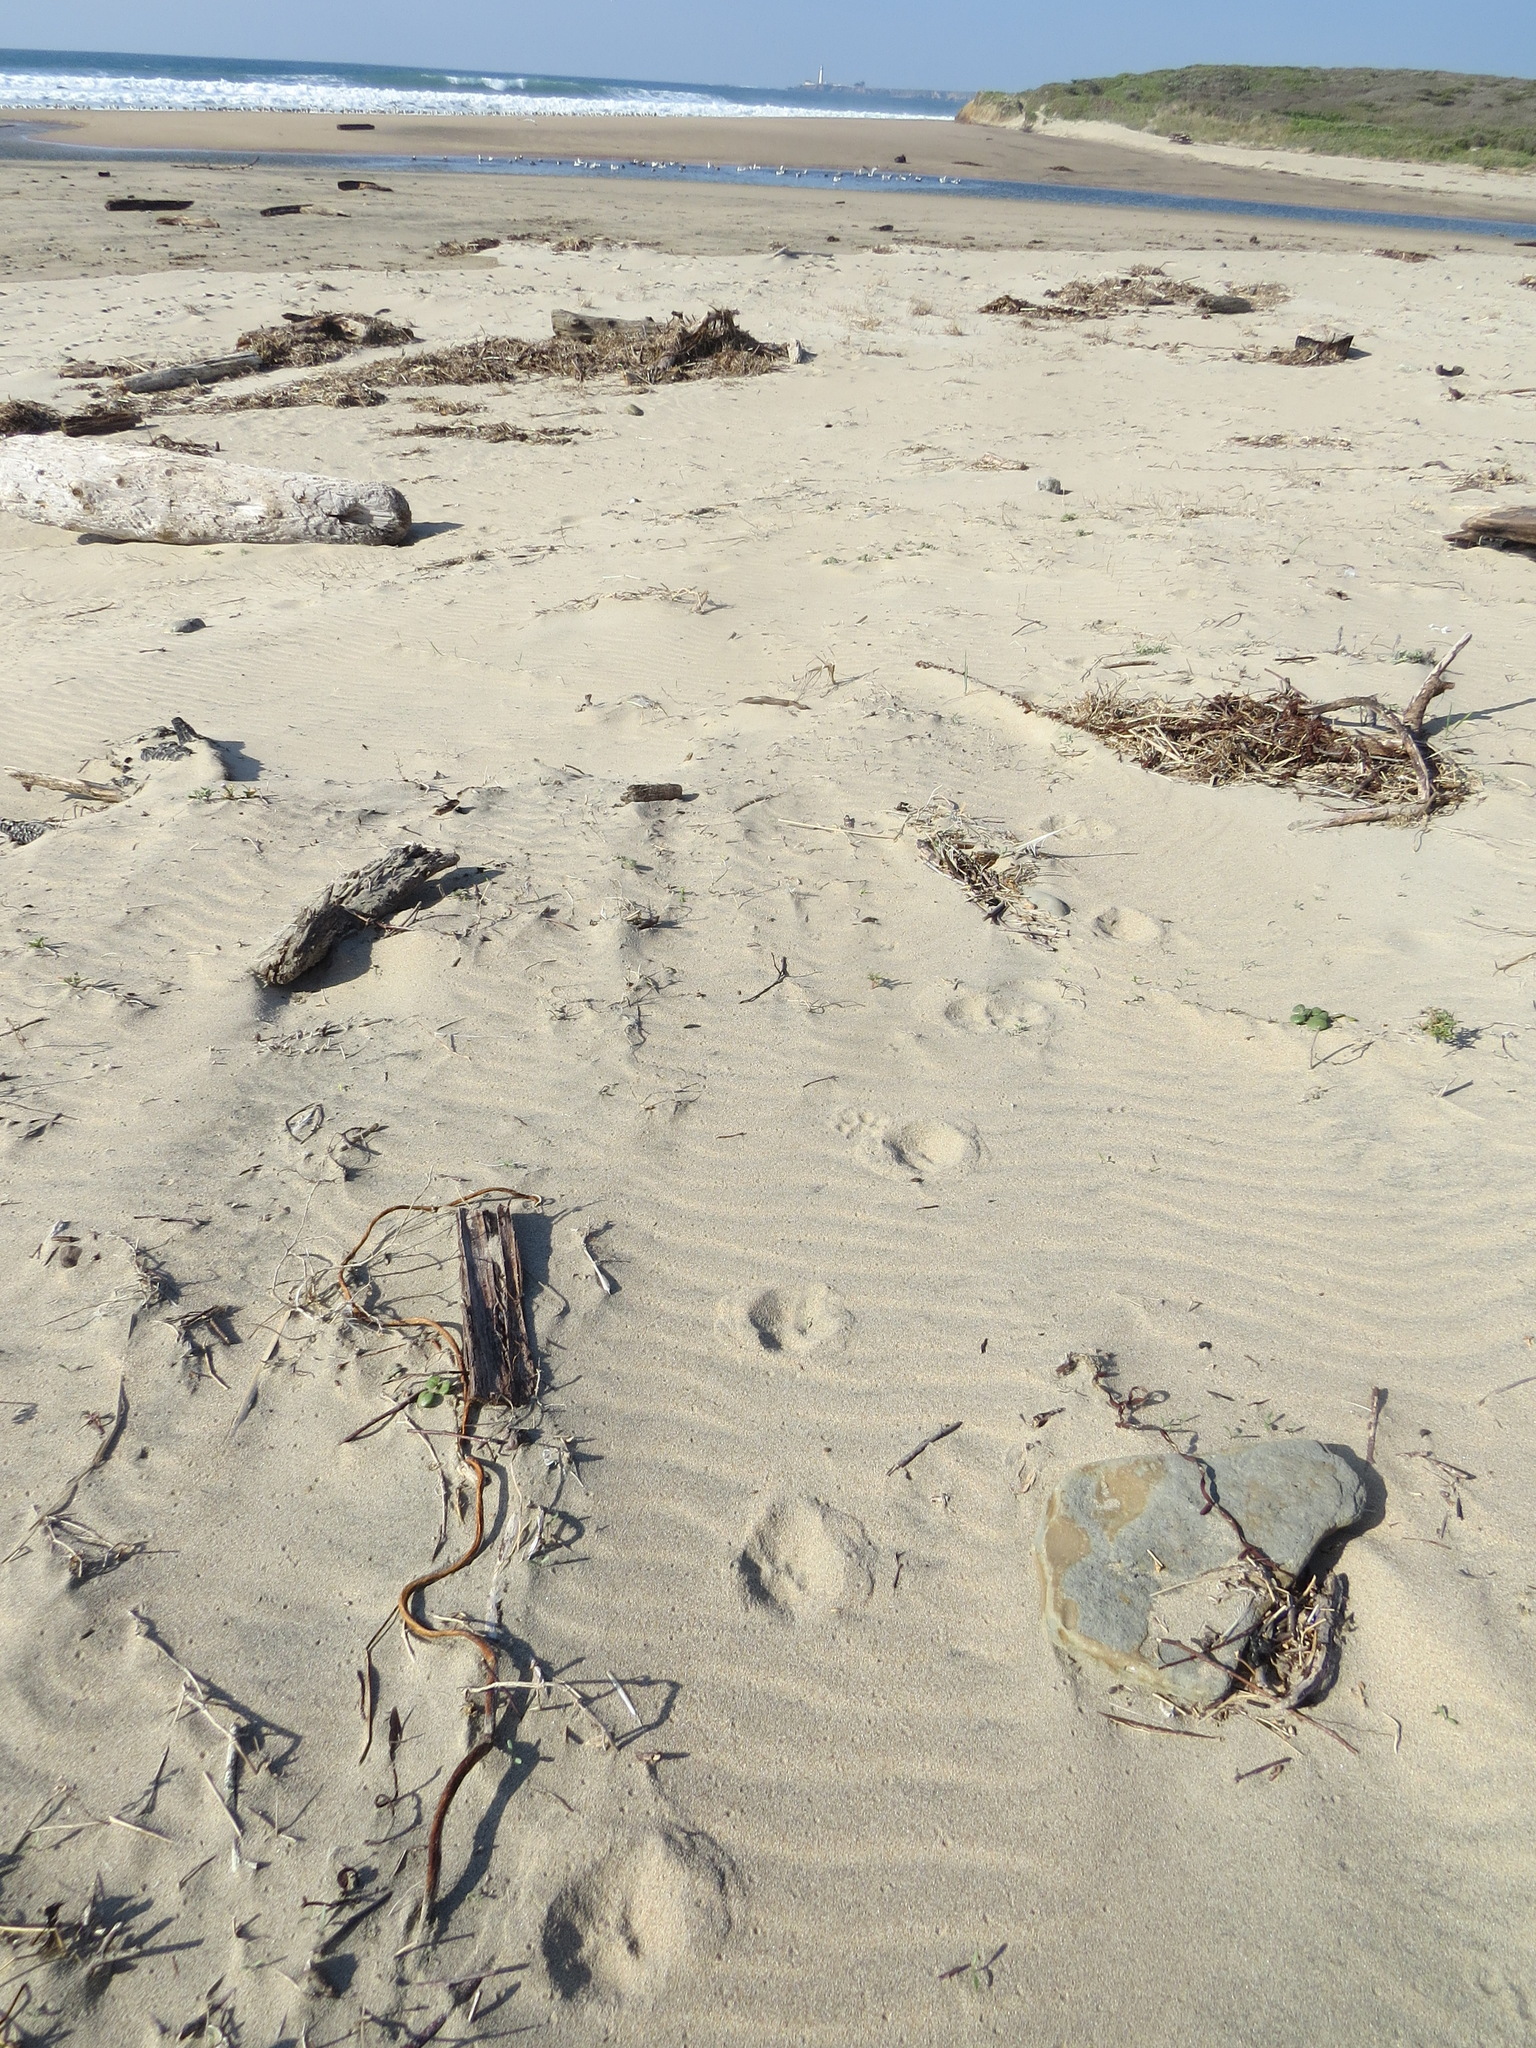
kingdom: Animalia
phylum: Chordata
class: Mammalia
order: Carnivora
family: Felidae
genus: Puma
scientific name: Puma concolor
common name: Puma
